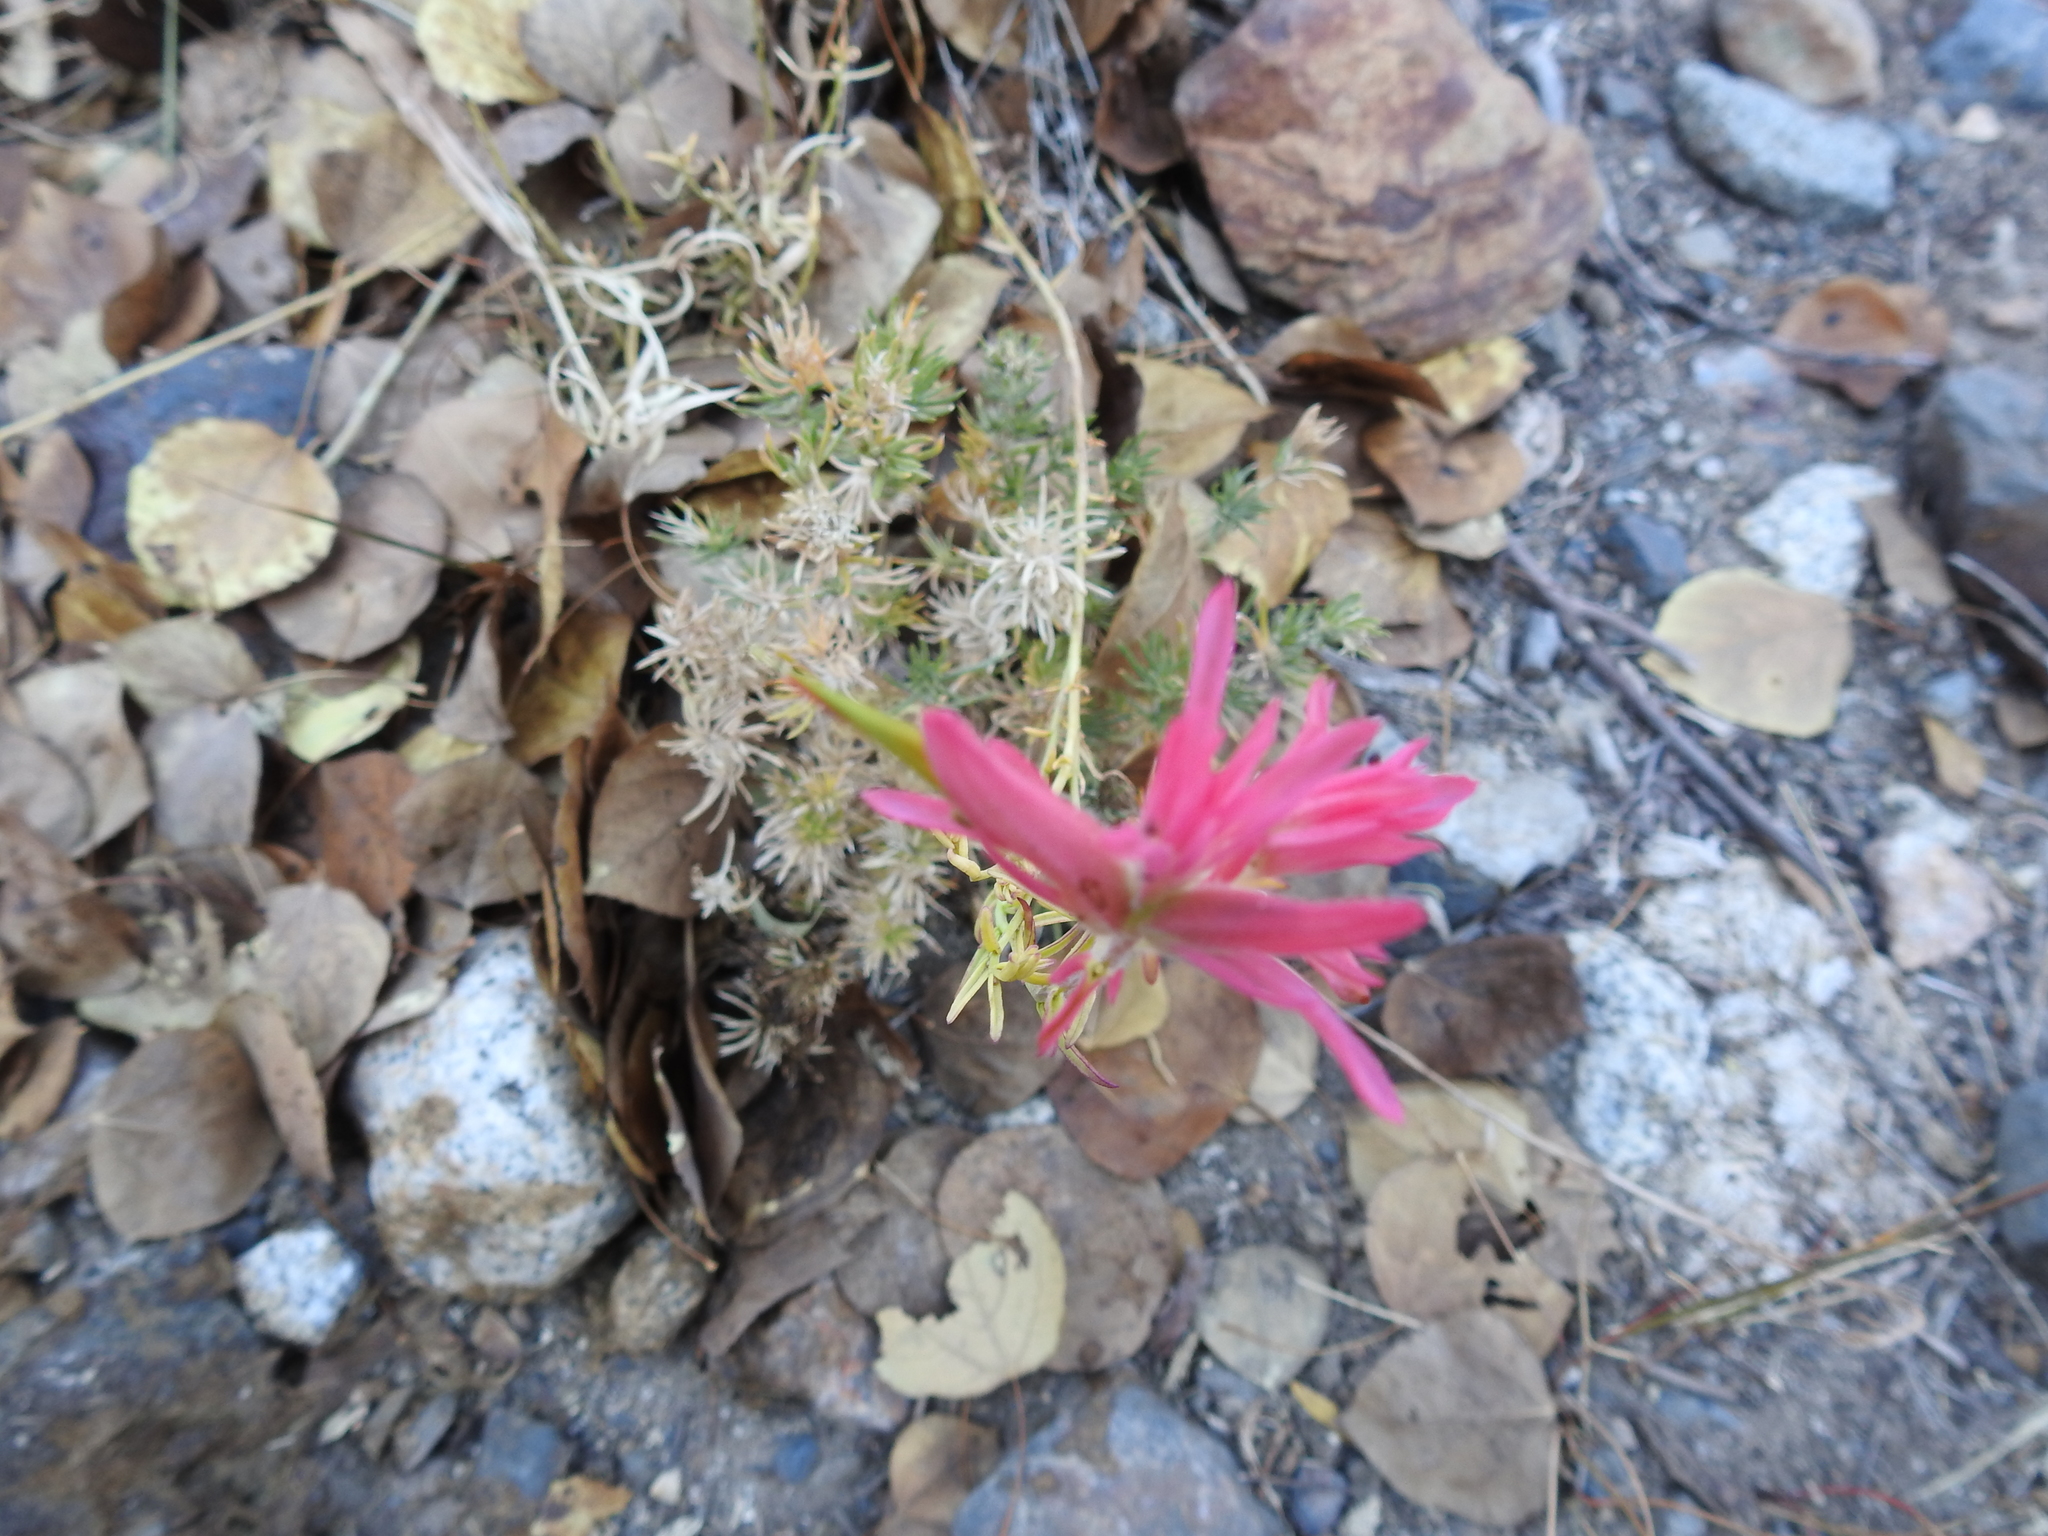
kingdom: Plantae
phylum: Tracheophyta
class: Magnoliopsida
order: Lamiales
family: Orobanchaceae
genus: Castilleja
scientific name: Castilleja linariifolia
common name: Wyoming paintbrush
